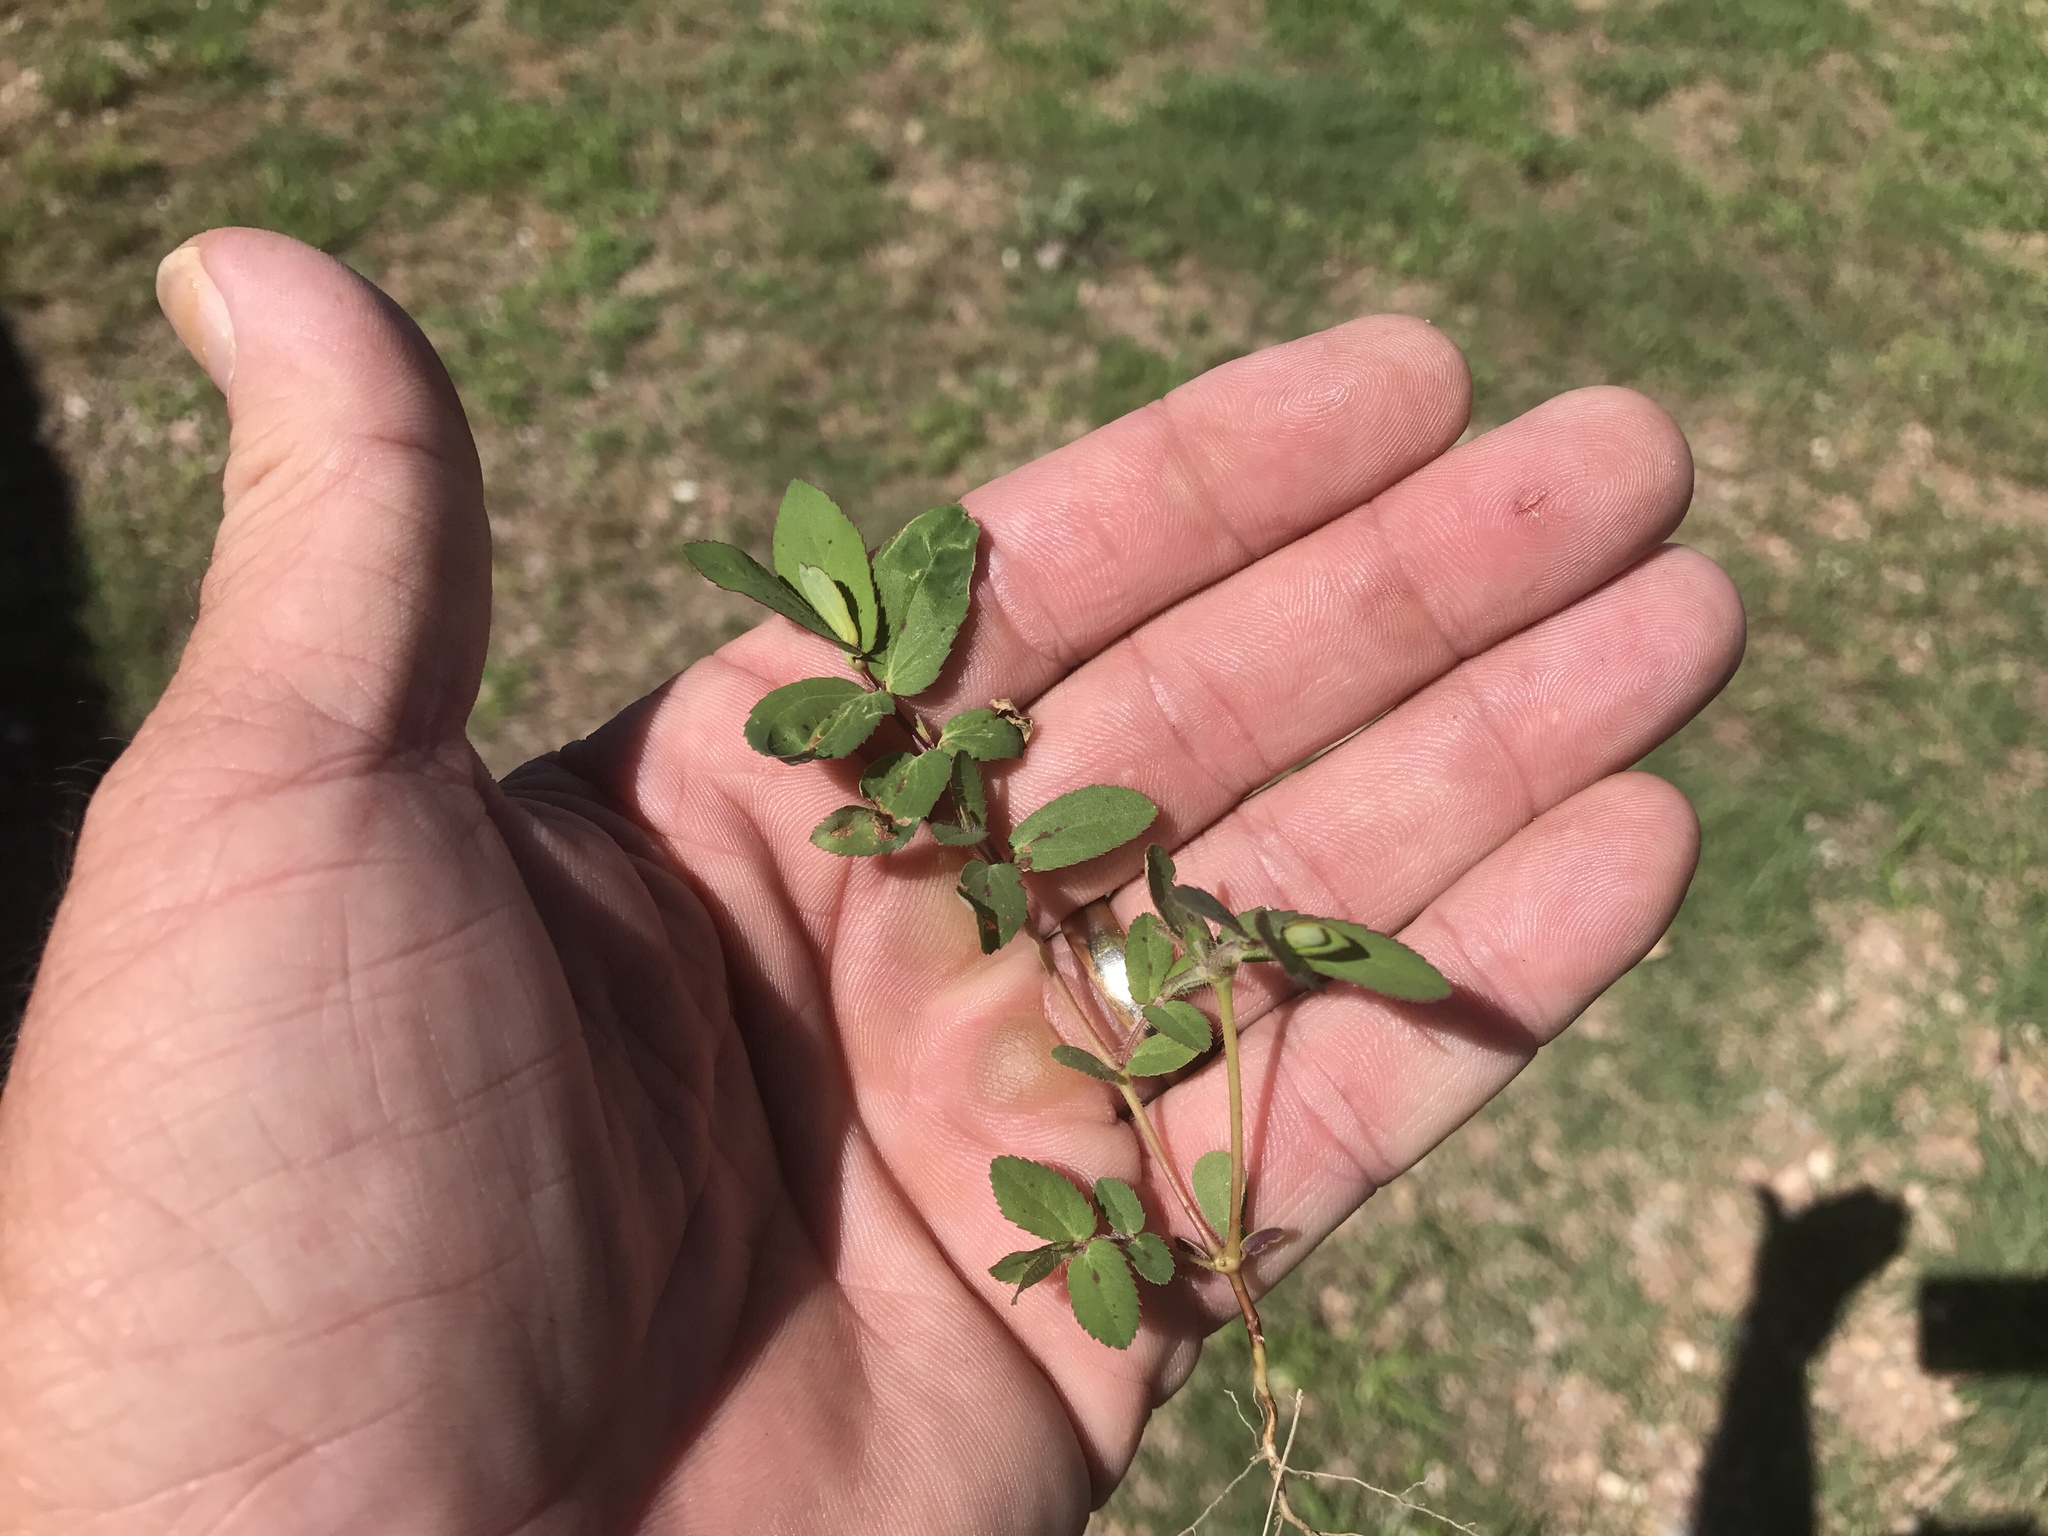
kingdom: Plantae
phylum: Tracheophyta
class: Magnoliopsida
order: Malpighiales
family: Euphorbiaceae
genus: Euphorbia
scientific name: Euphorbia hyssopifolia
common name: Hyssopleaf sandmat
